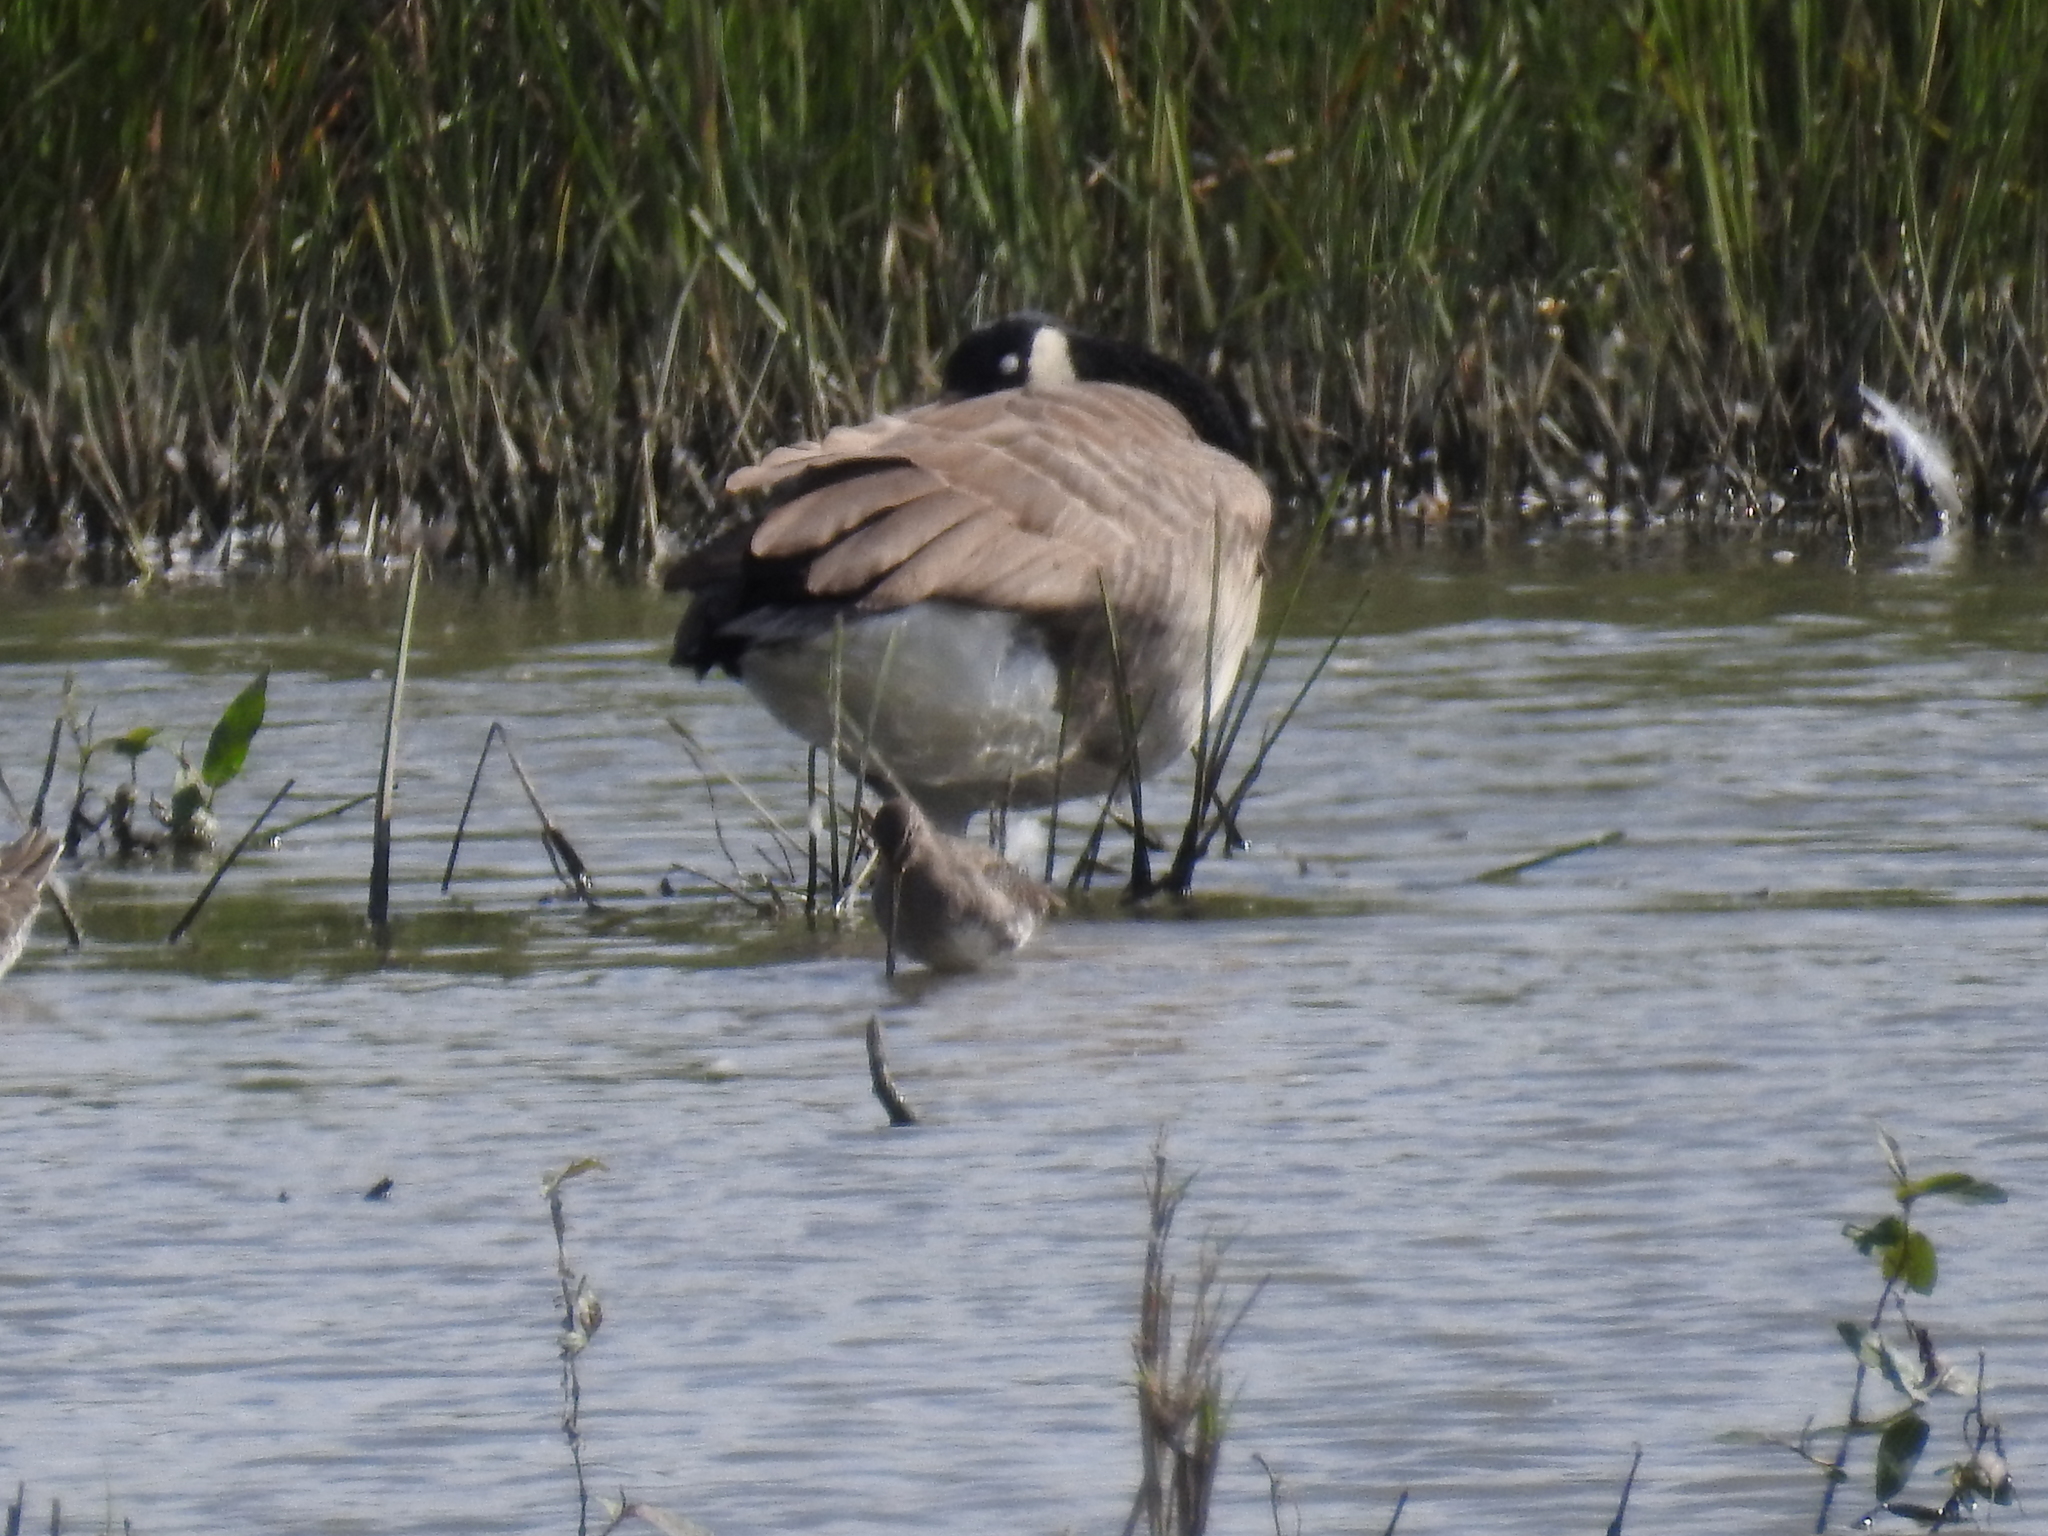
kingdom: Animalia
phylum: Chordata
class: Aves
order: Anseriformes
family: Anatidae
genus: Branta
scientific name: Branta canadensis
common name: Canada goose
